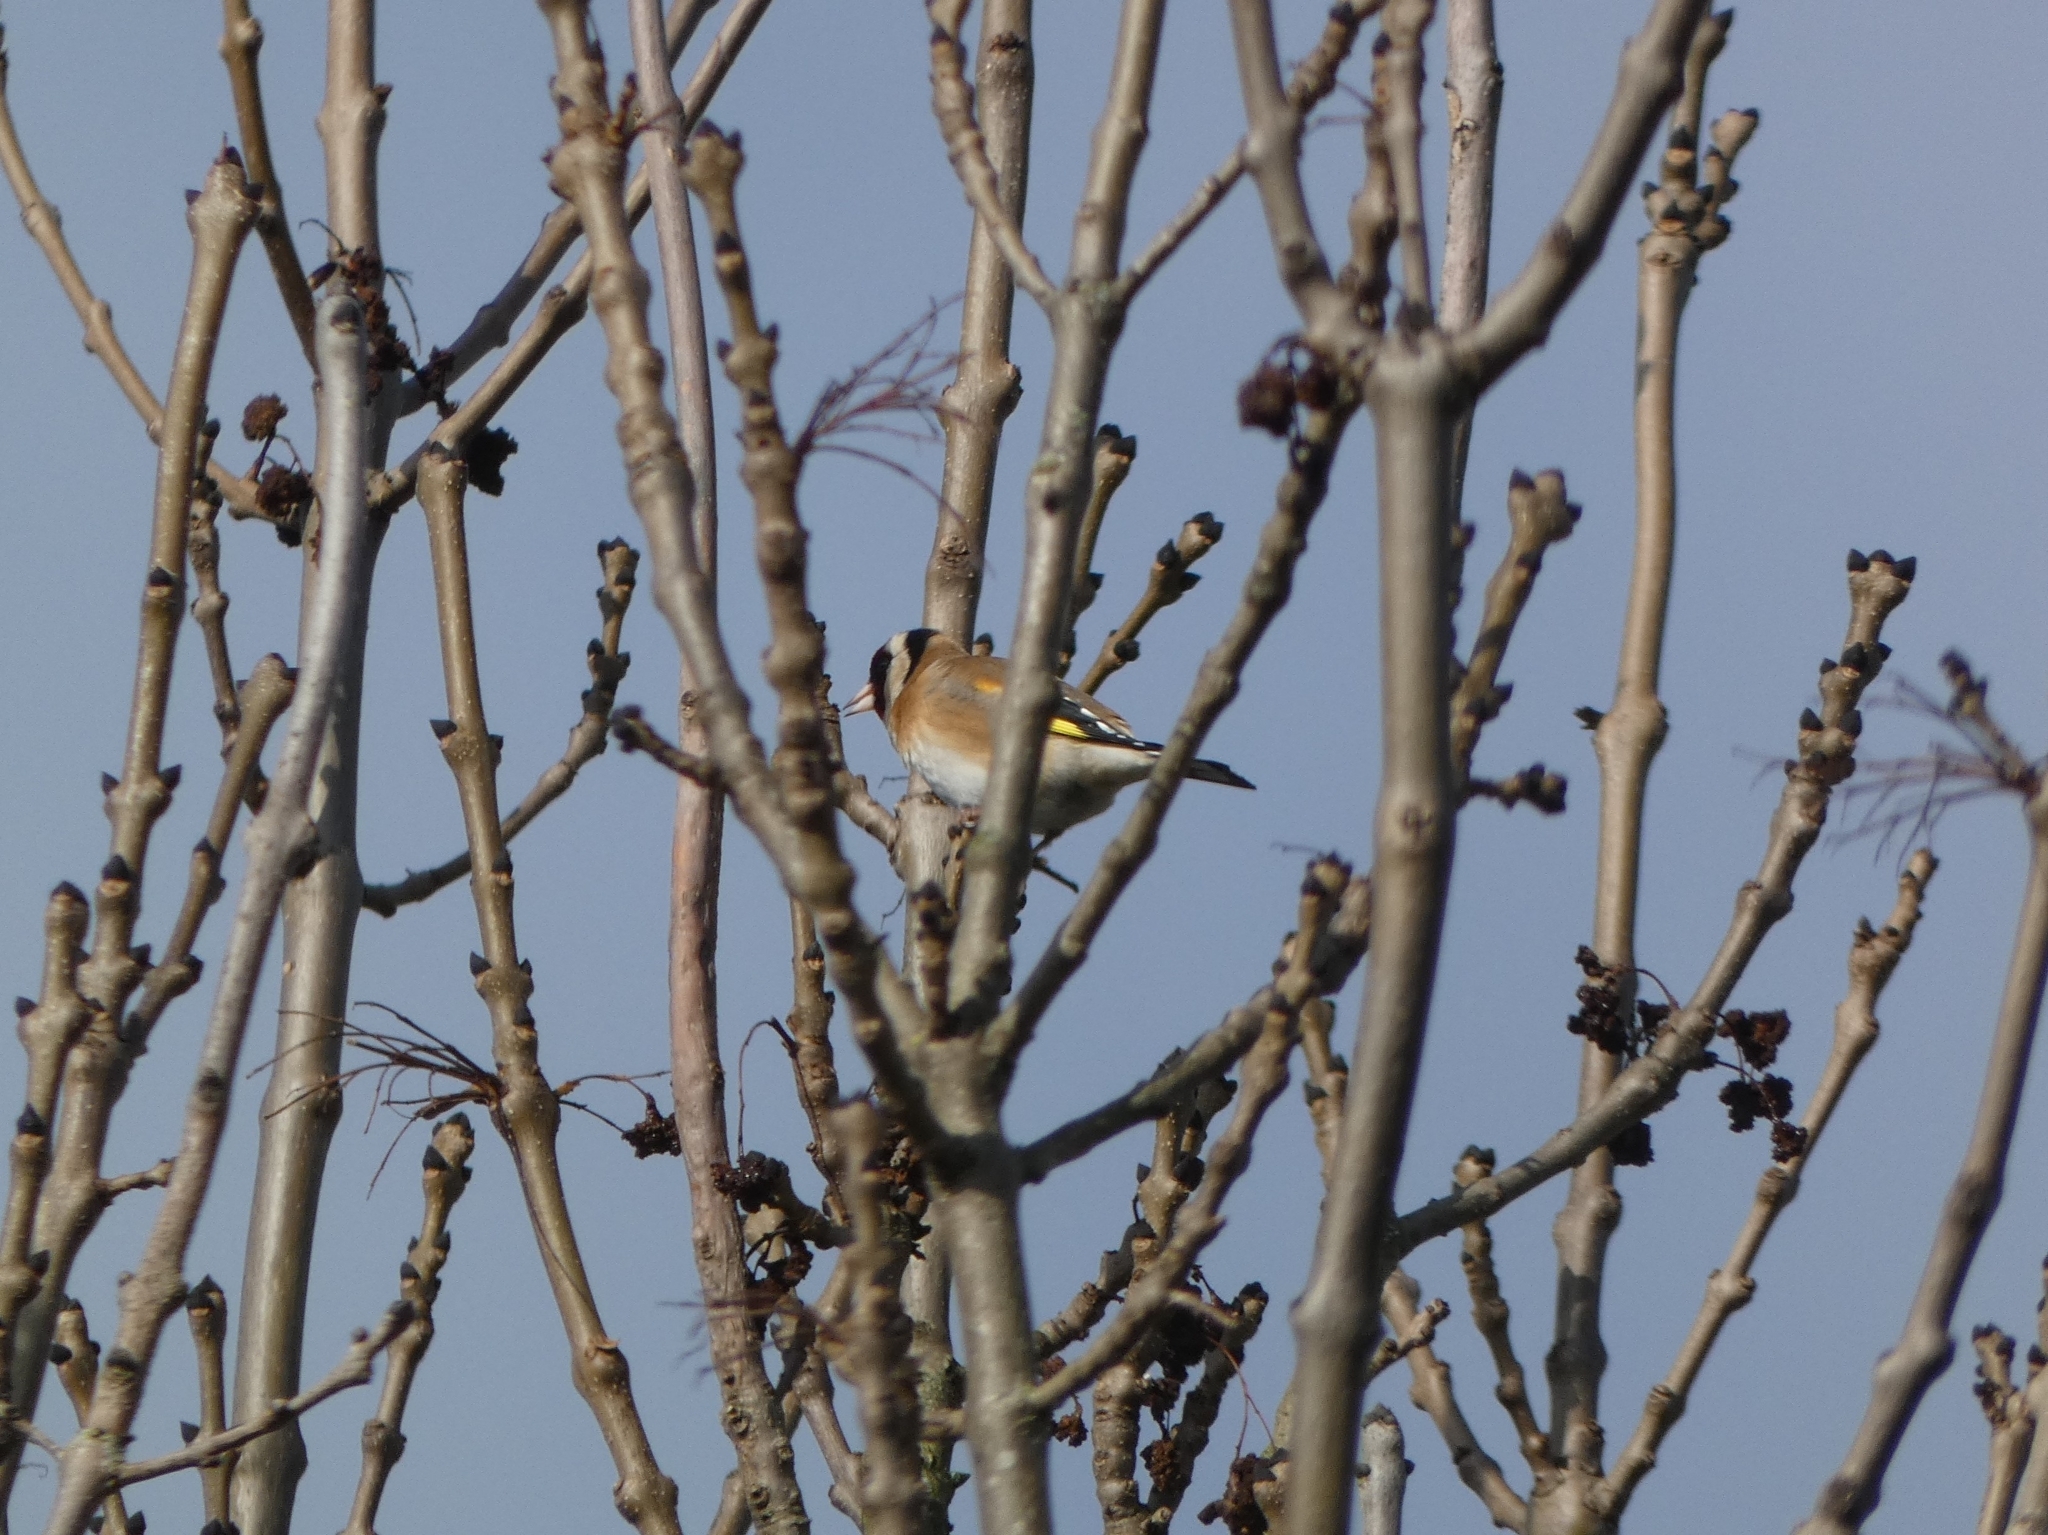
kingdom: Animalia
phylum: Chordata
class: Aves
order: Passeriformes
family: Fringillidae
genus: Carduelis
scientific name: Carduelis carduelis
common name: European goldfinch
